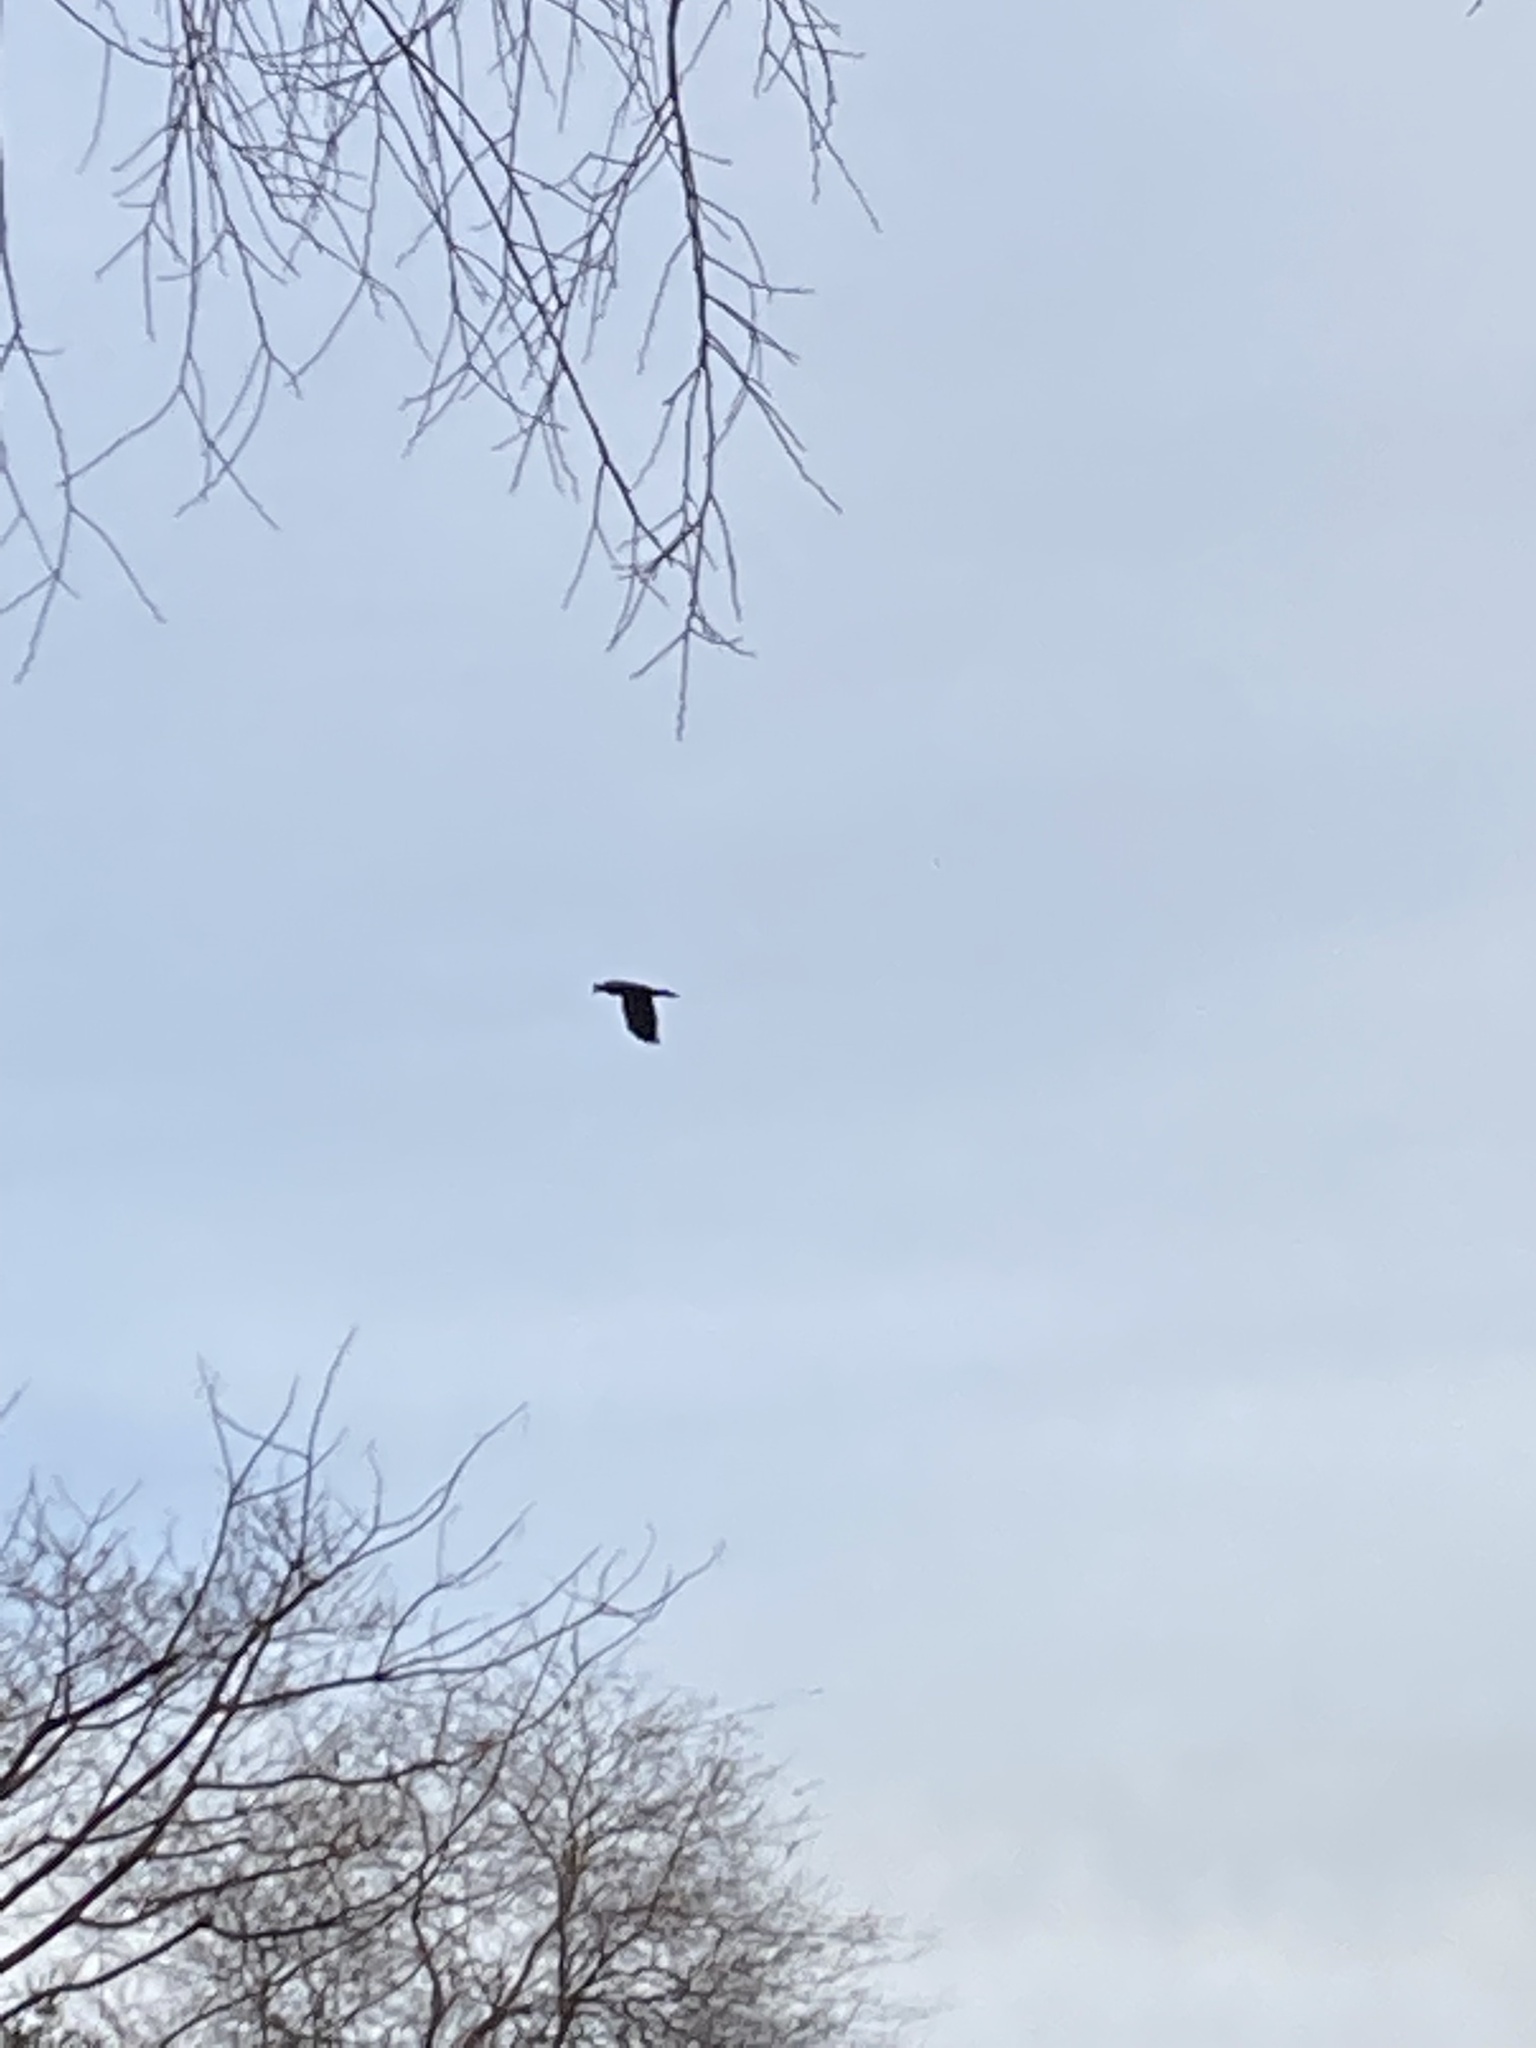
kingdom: Animalia
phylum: Chordata
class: Aves
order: Passeriformes
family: Corvidae
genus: Corvus
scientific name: Corvus brachyrhynchos
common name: American crow
